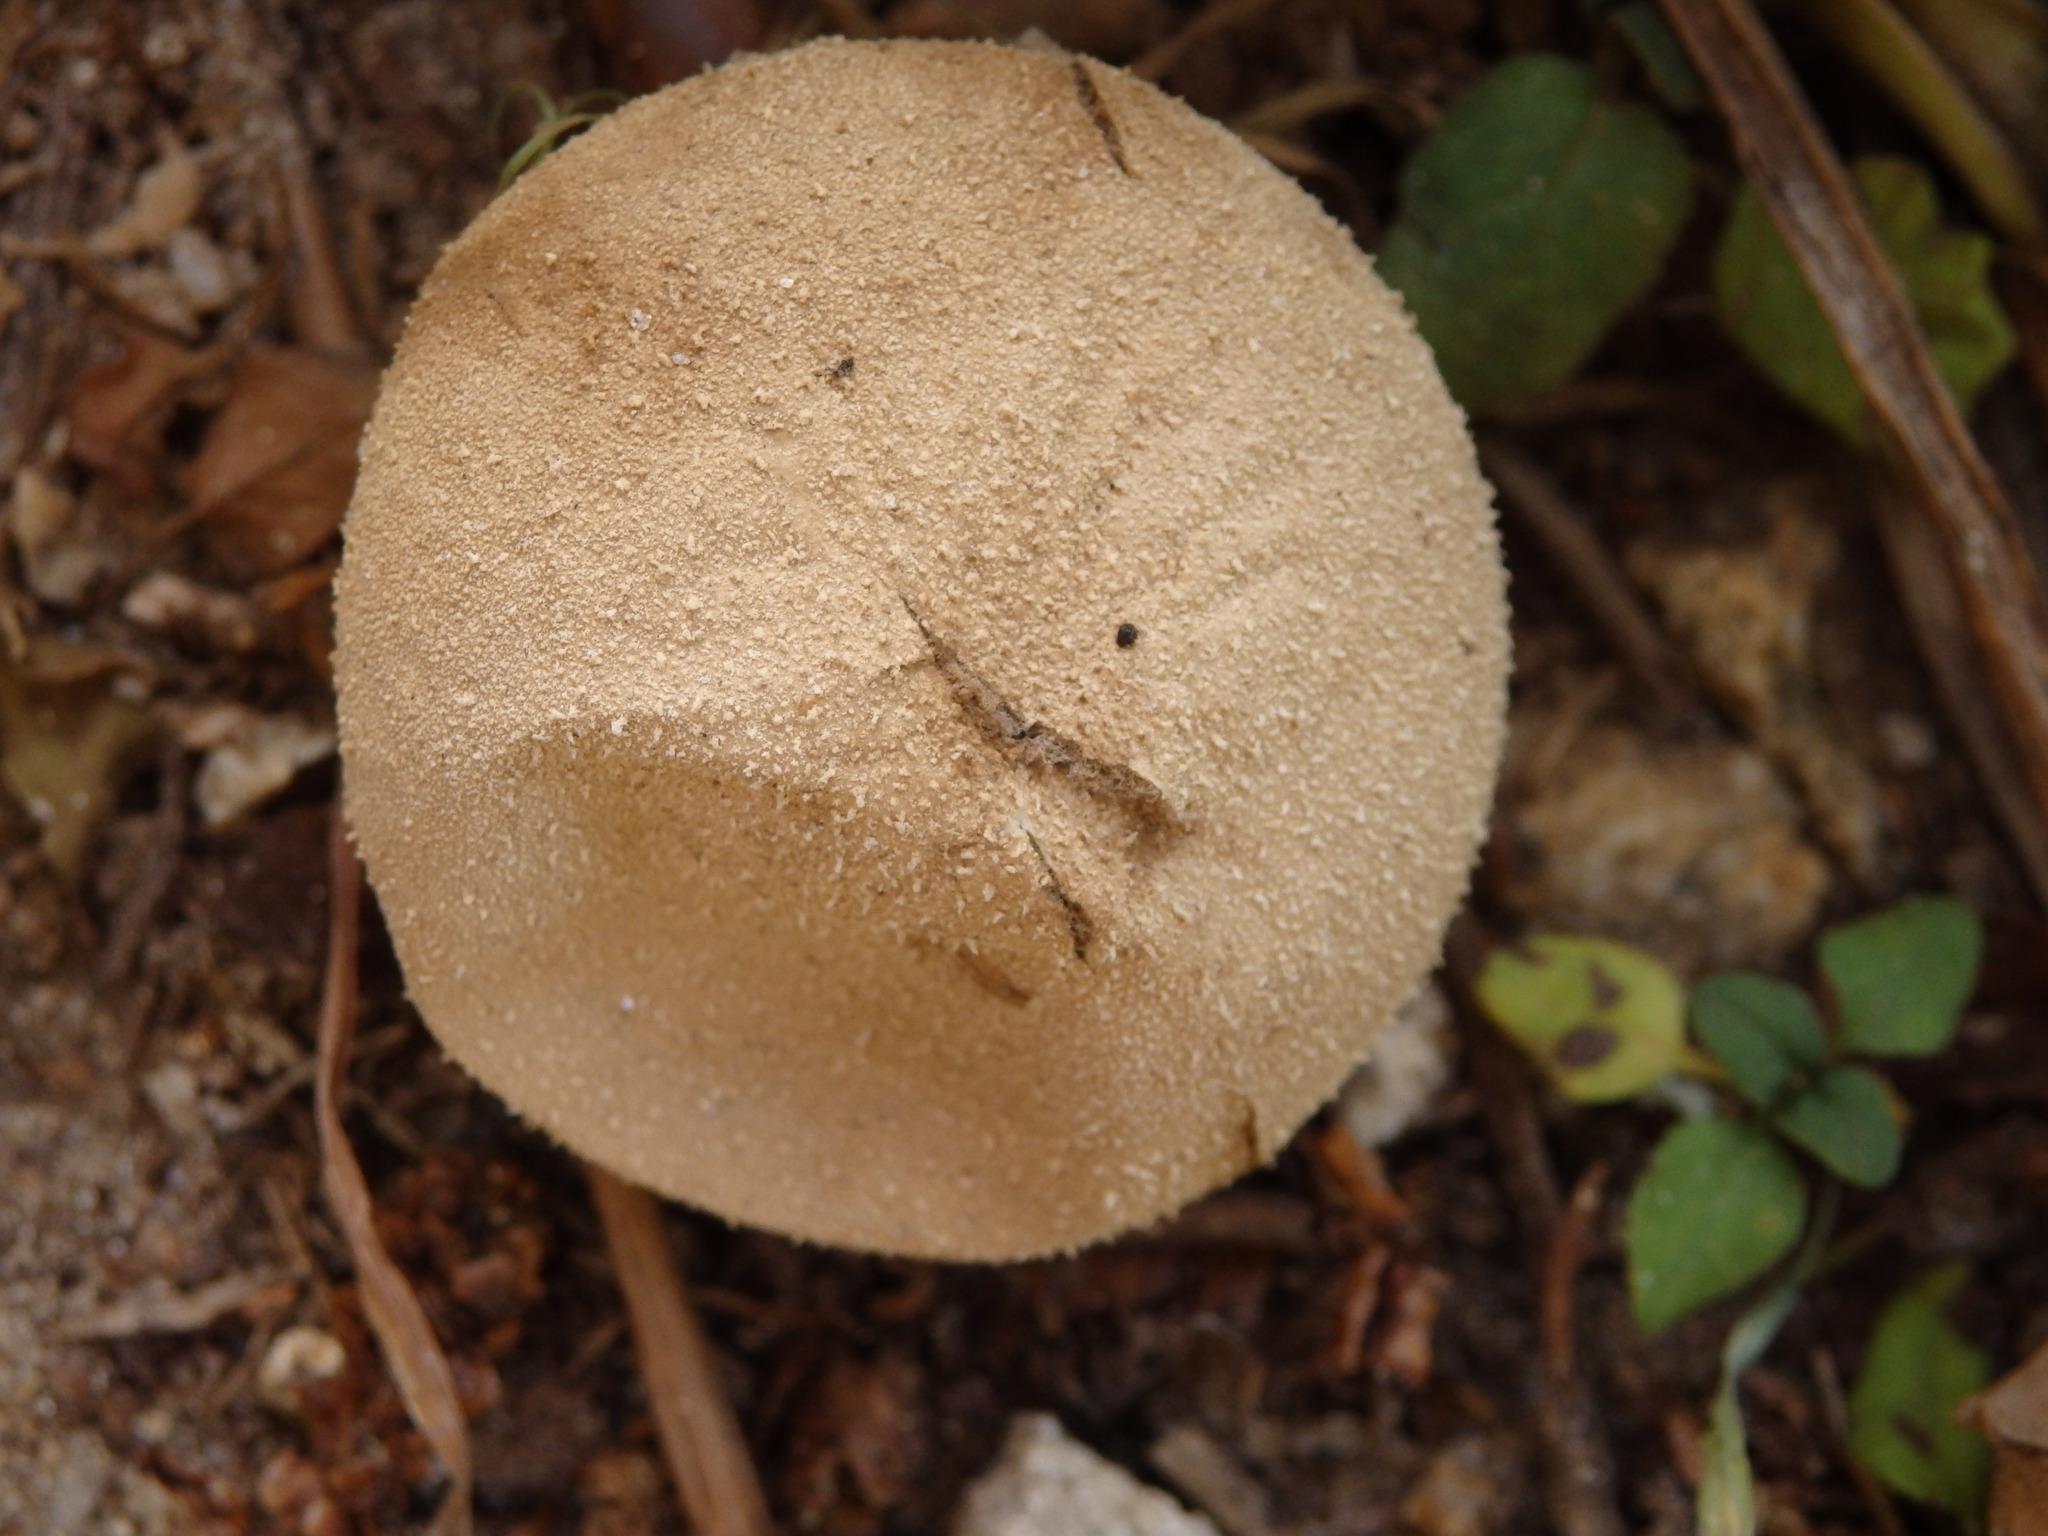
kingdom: Fungi
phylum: Basidiomycota
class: Agaricomycetes
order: Agaricales
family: Lycoperdaceae
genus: Lycoperdon
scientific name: Lycoperdon perlatum
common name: Common puffball
